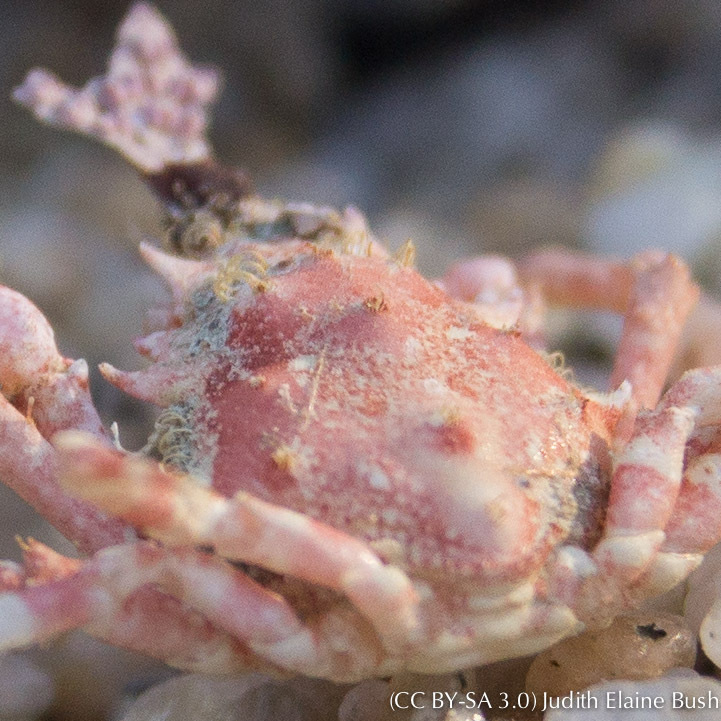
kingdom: Animalia
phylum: Arthropoda
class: Malacostraca
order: Decapoda
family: Epialtidae
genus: Pugettia
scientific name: Pugettia richii
